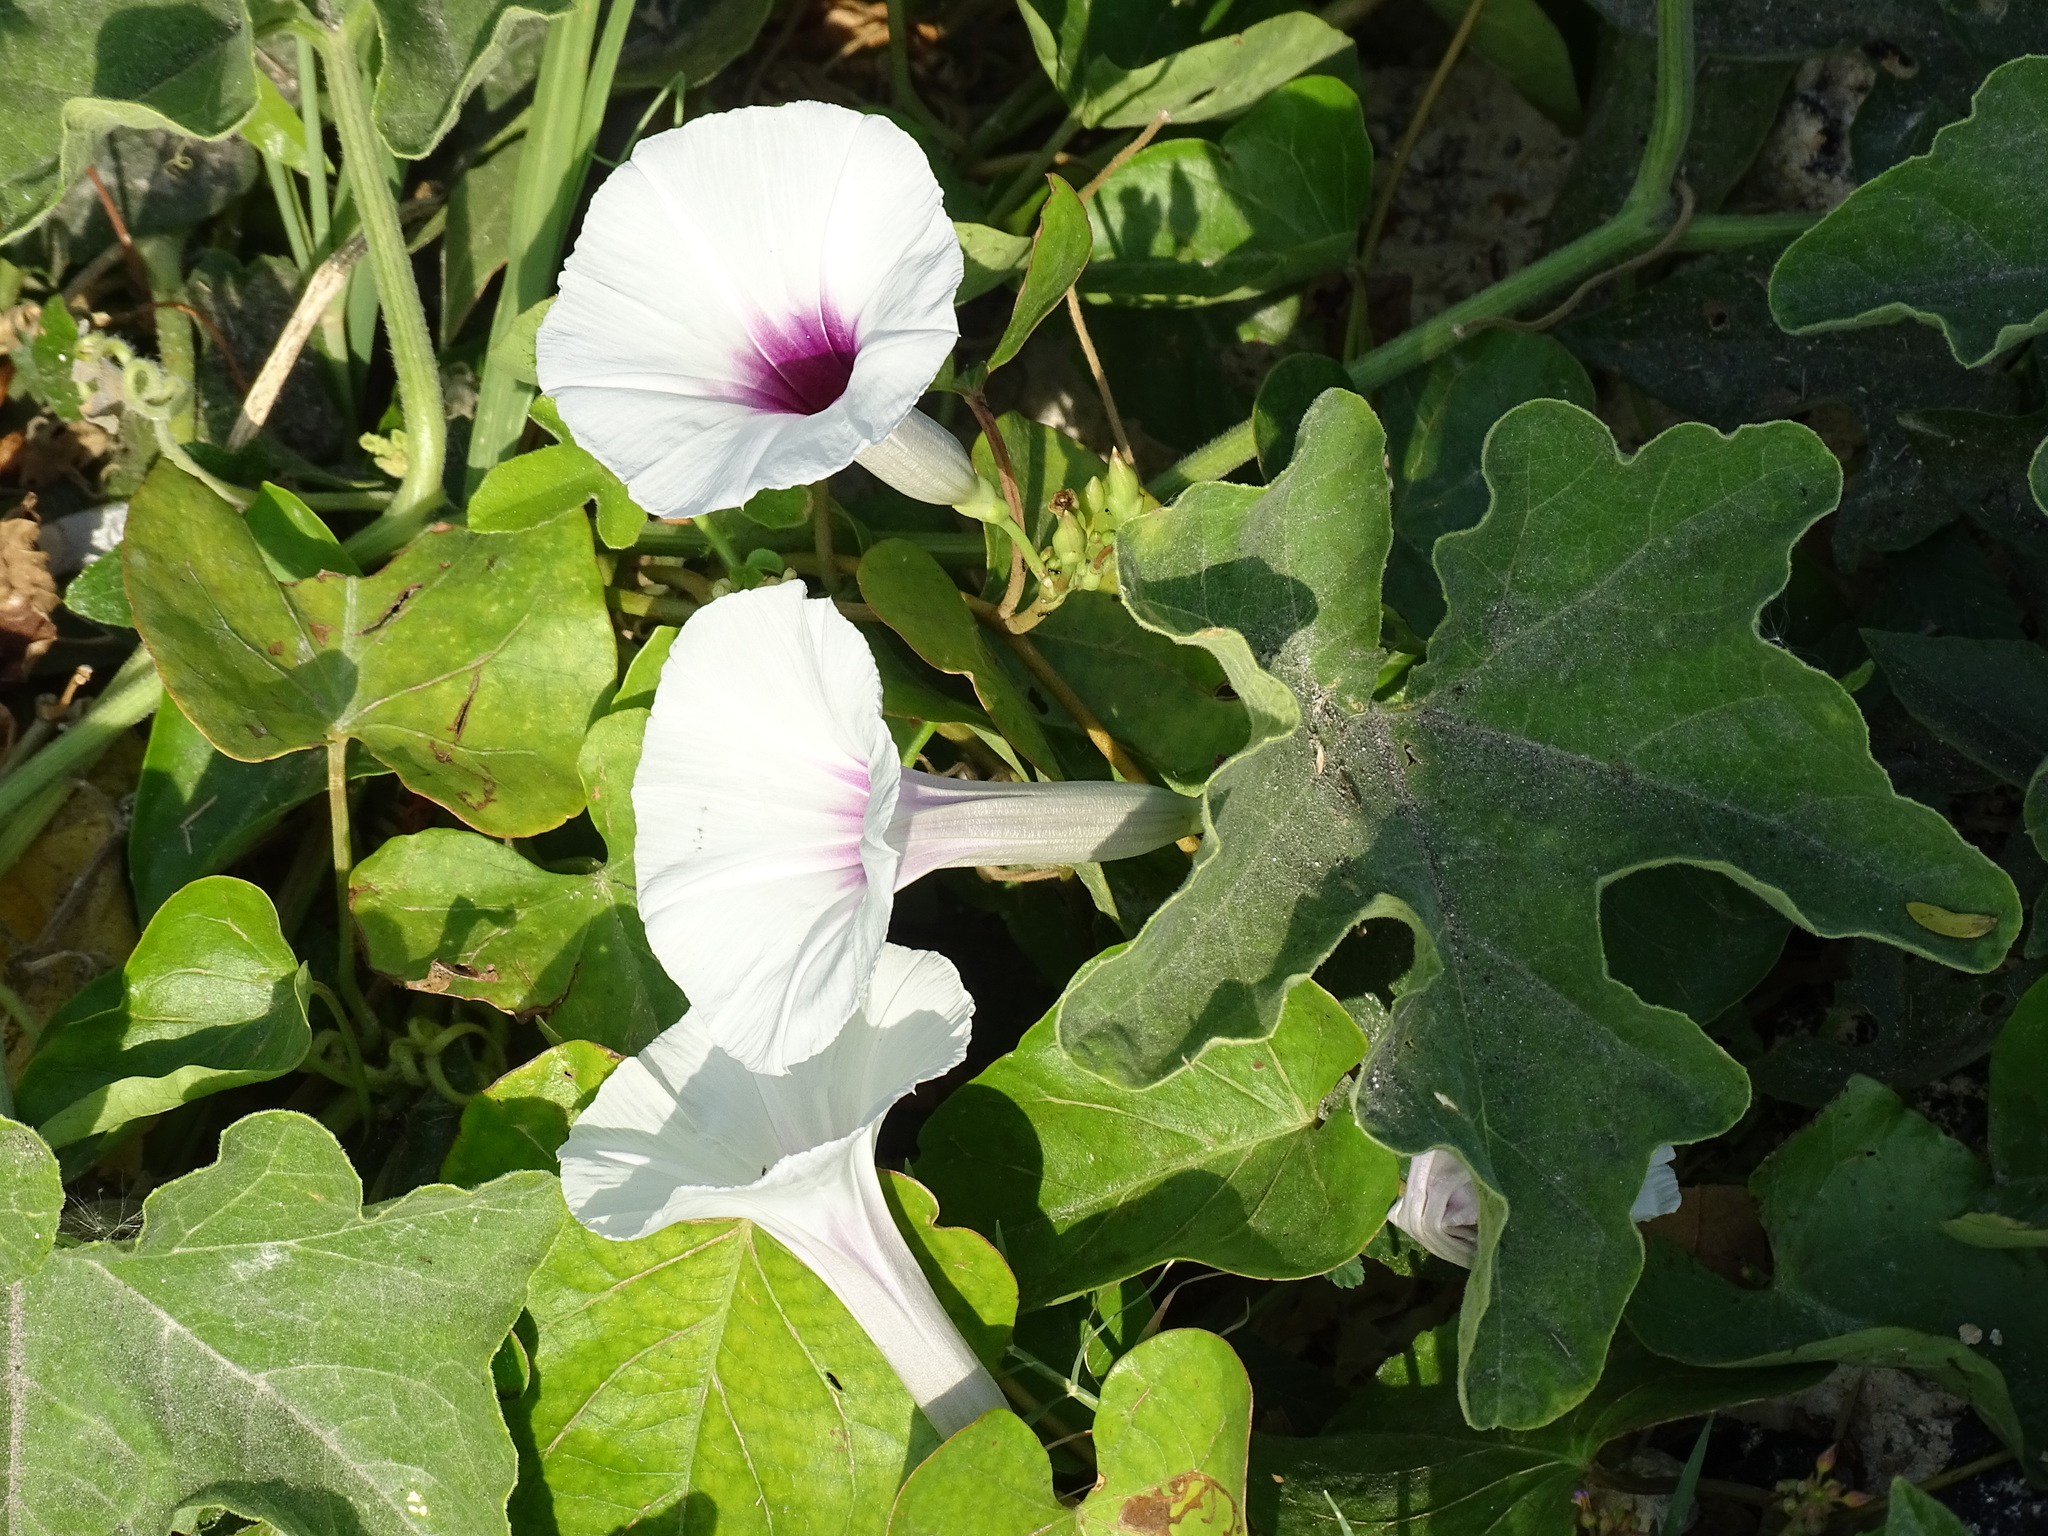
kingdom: Plantae
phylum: Tracheophyta
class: Magnoliopsida
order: Solanales
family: Convolvulaceae
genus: Ipomoea
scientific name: Ipomoea anisomeres
